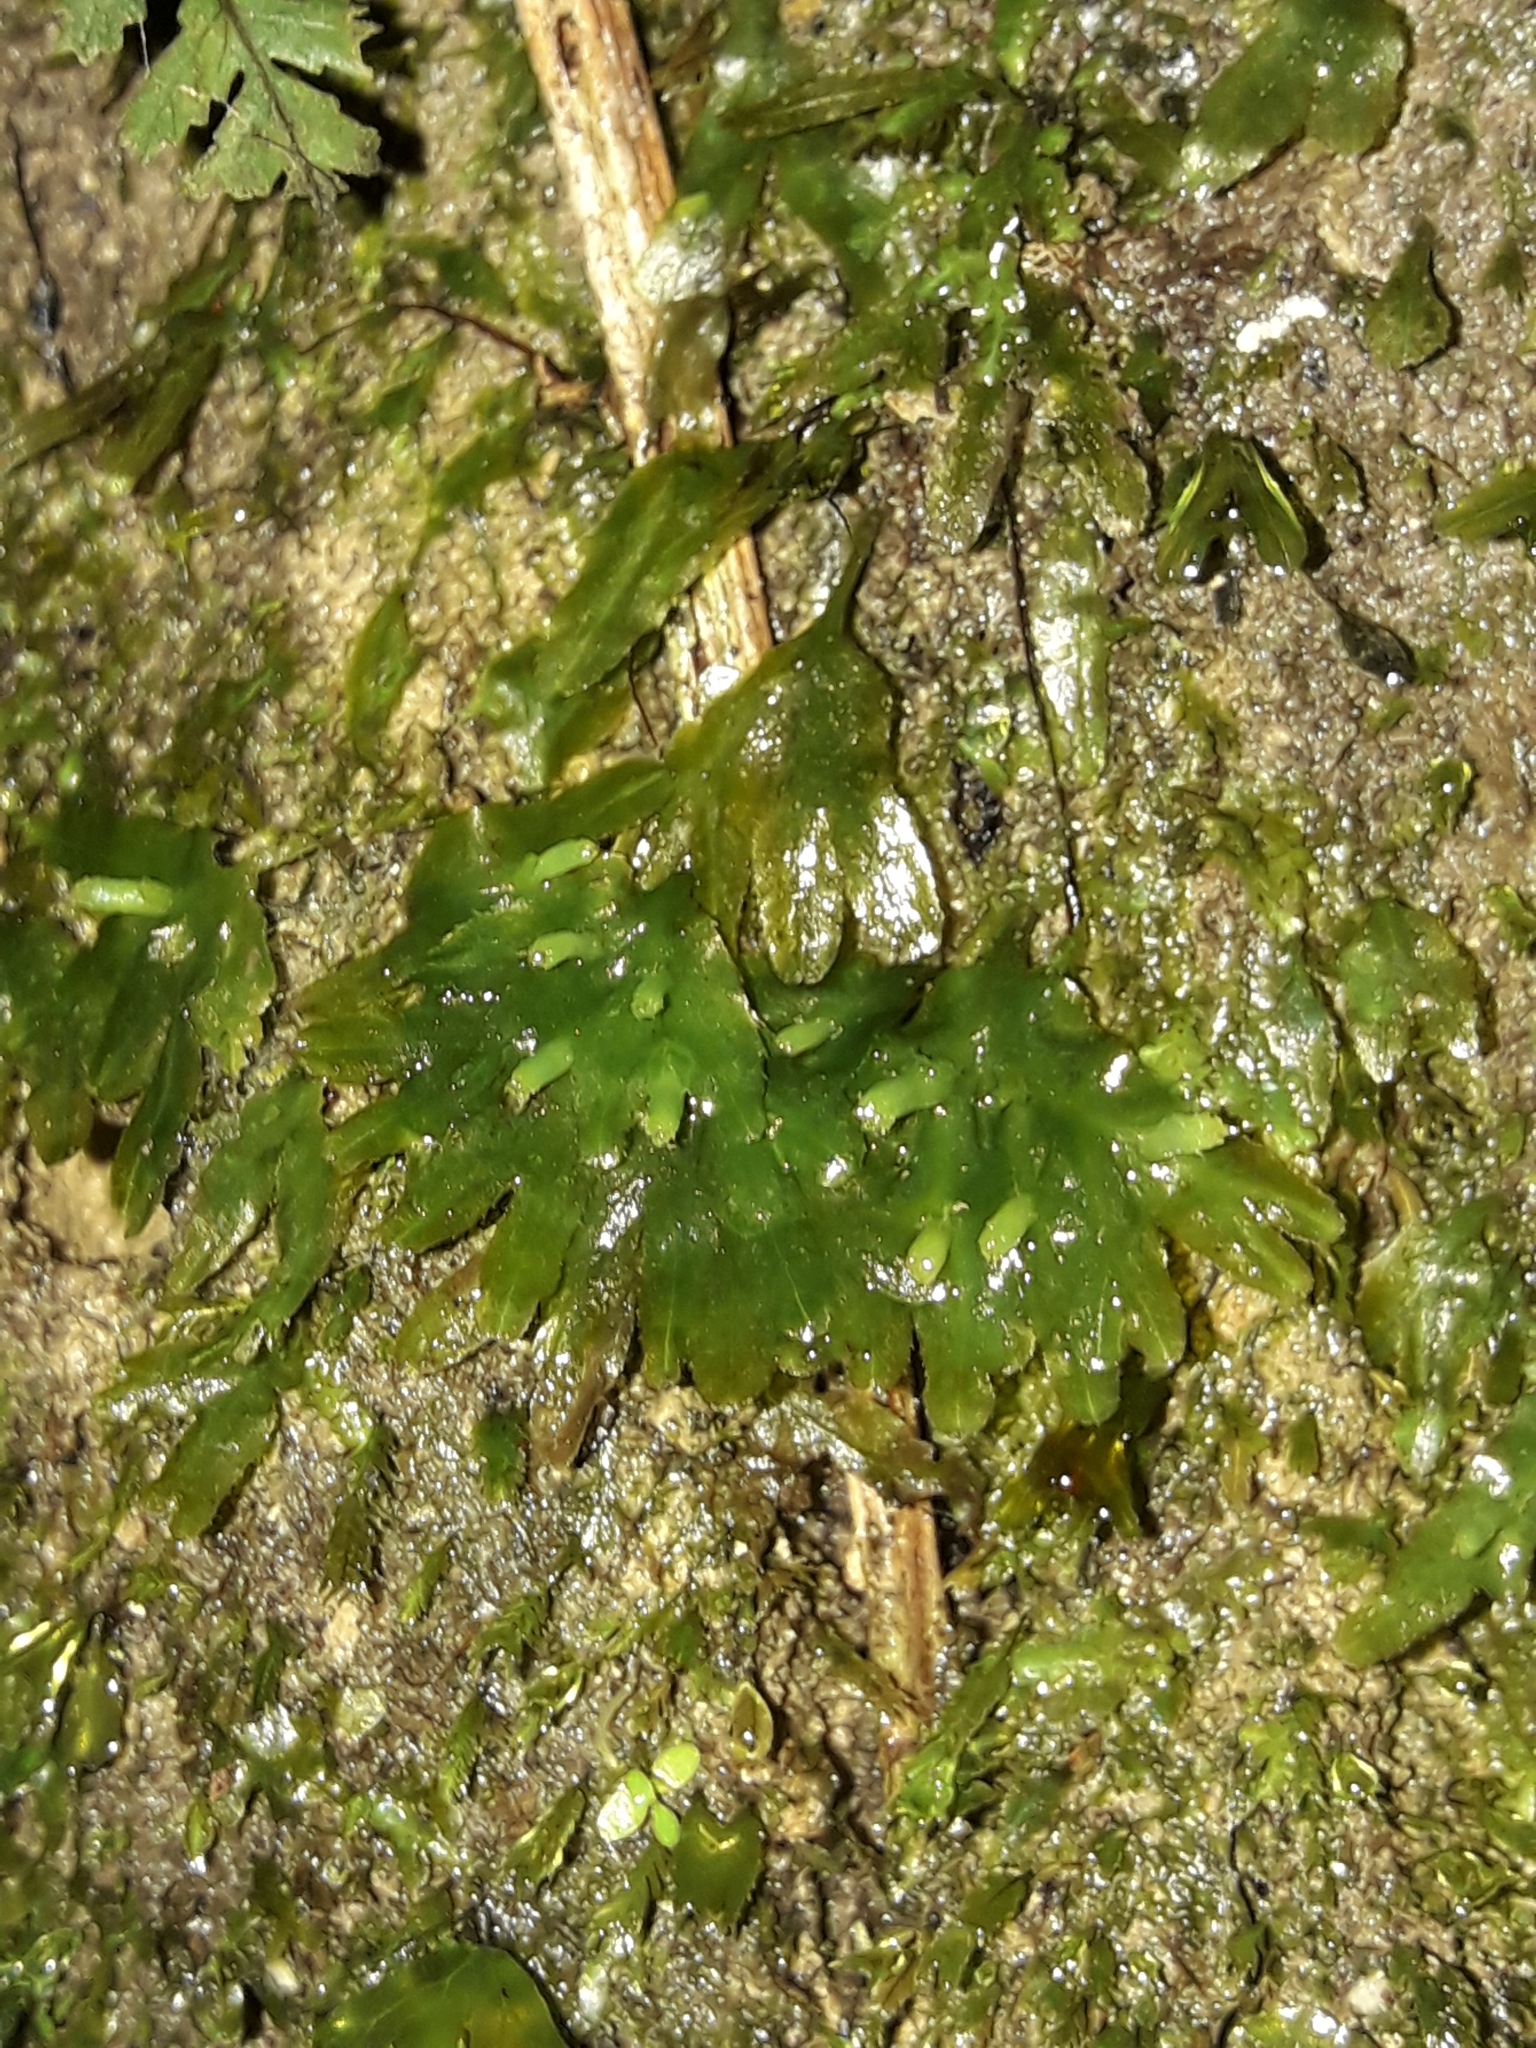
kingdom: Plantae
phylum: Marchantiophyta
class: Jungermanniopsida
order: Pallaviciniales
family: Pallaviciniaceae
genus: Symphyogyna
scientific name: Symphyogyna hymenophyllum
